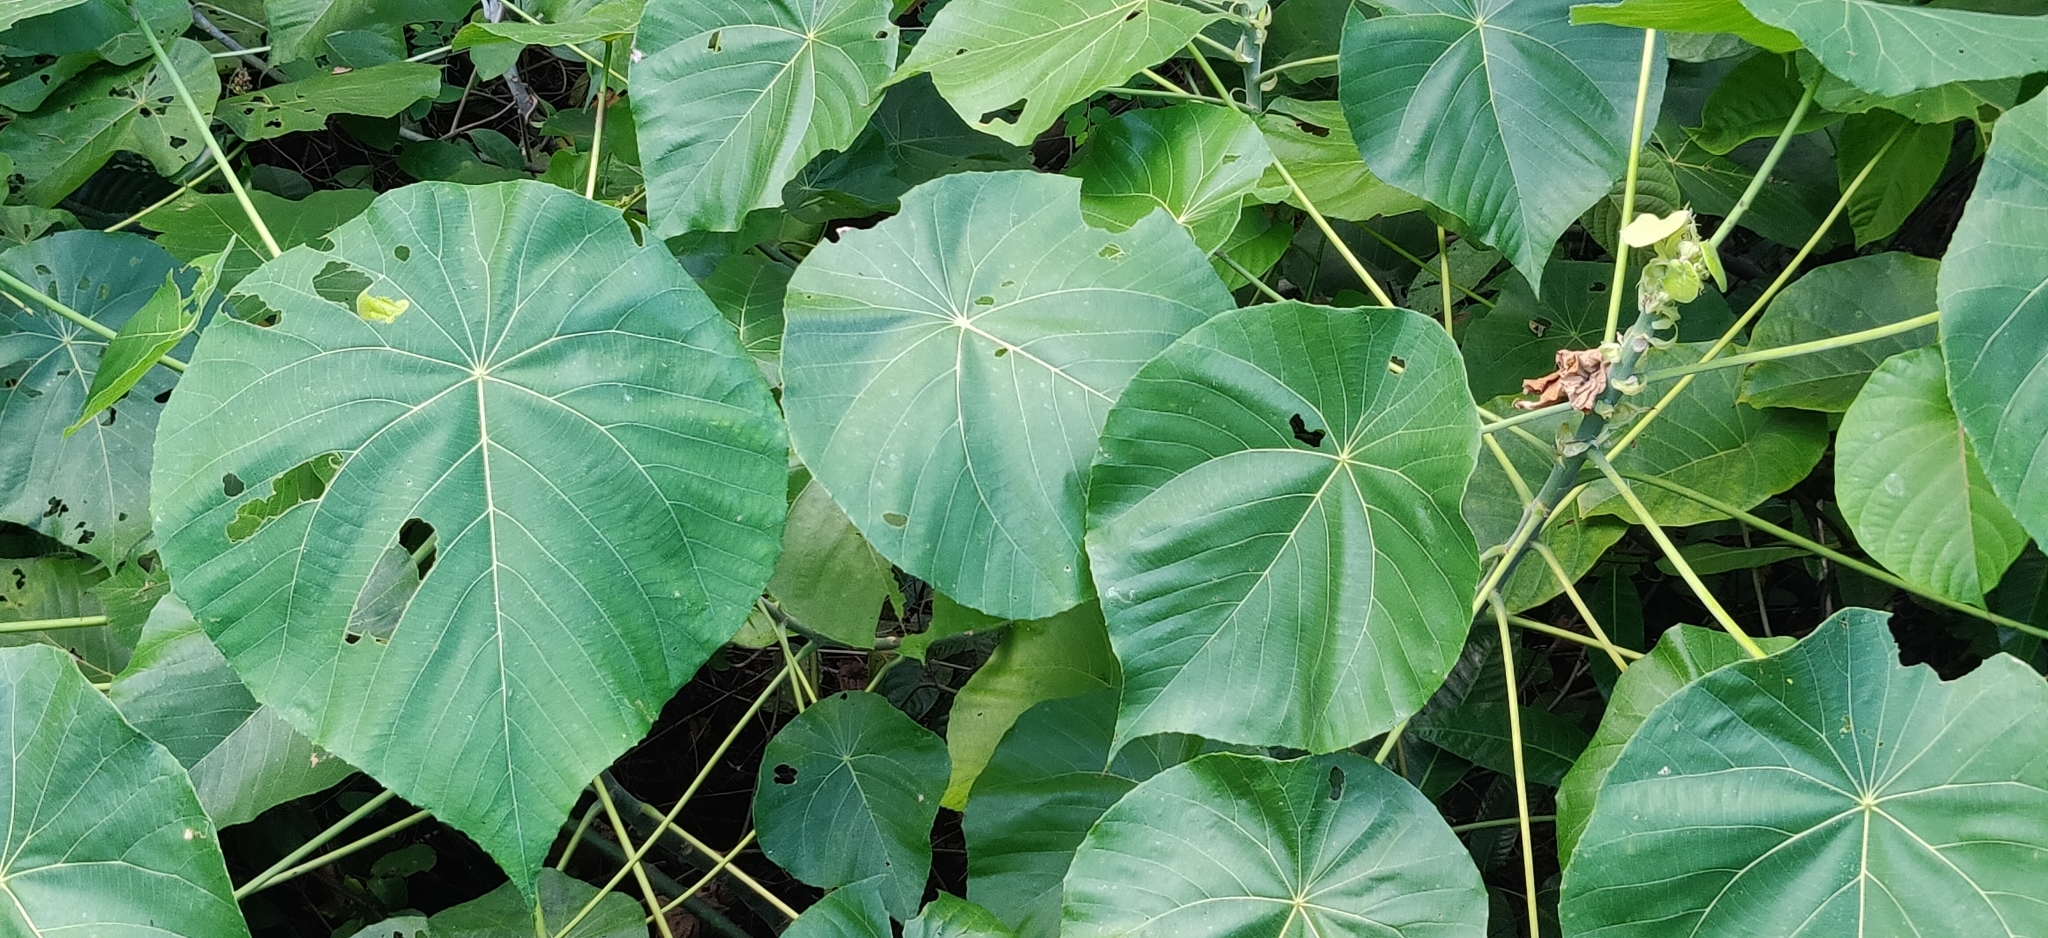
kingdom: Plantae
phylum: Tracheophyta
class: Magnoliopsida
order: Malpighiales
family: Euphorbiaceae
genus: Macaranga
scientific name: Macaranga tanarius
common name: Parasol leaf tree
